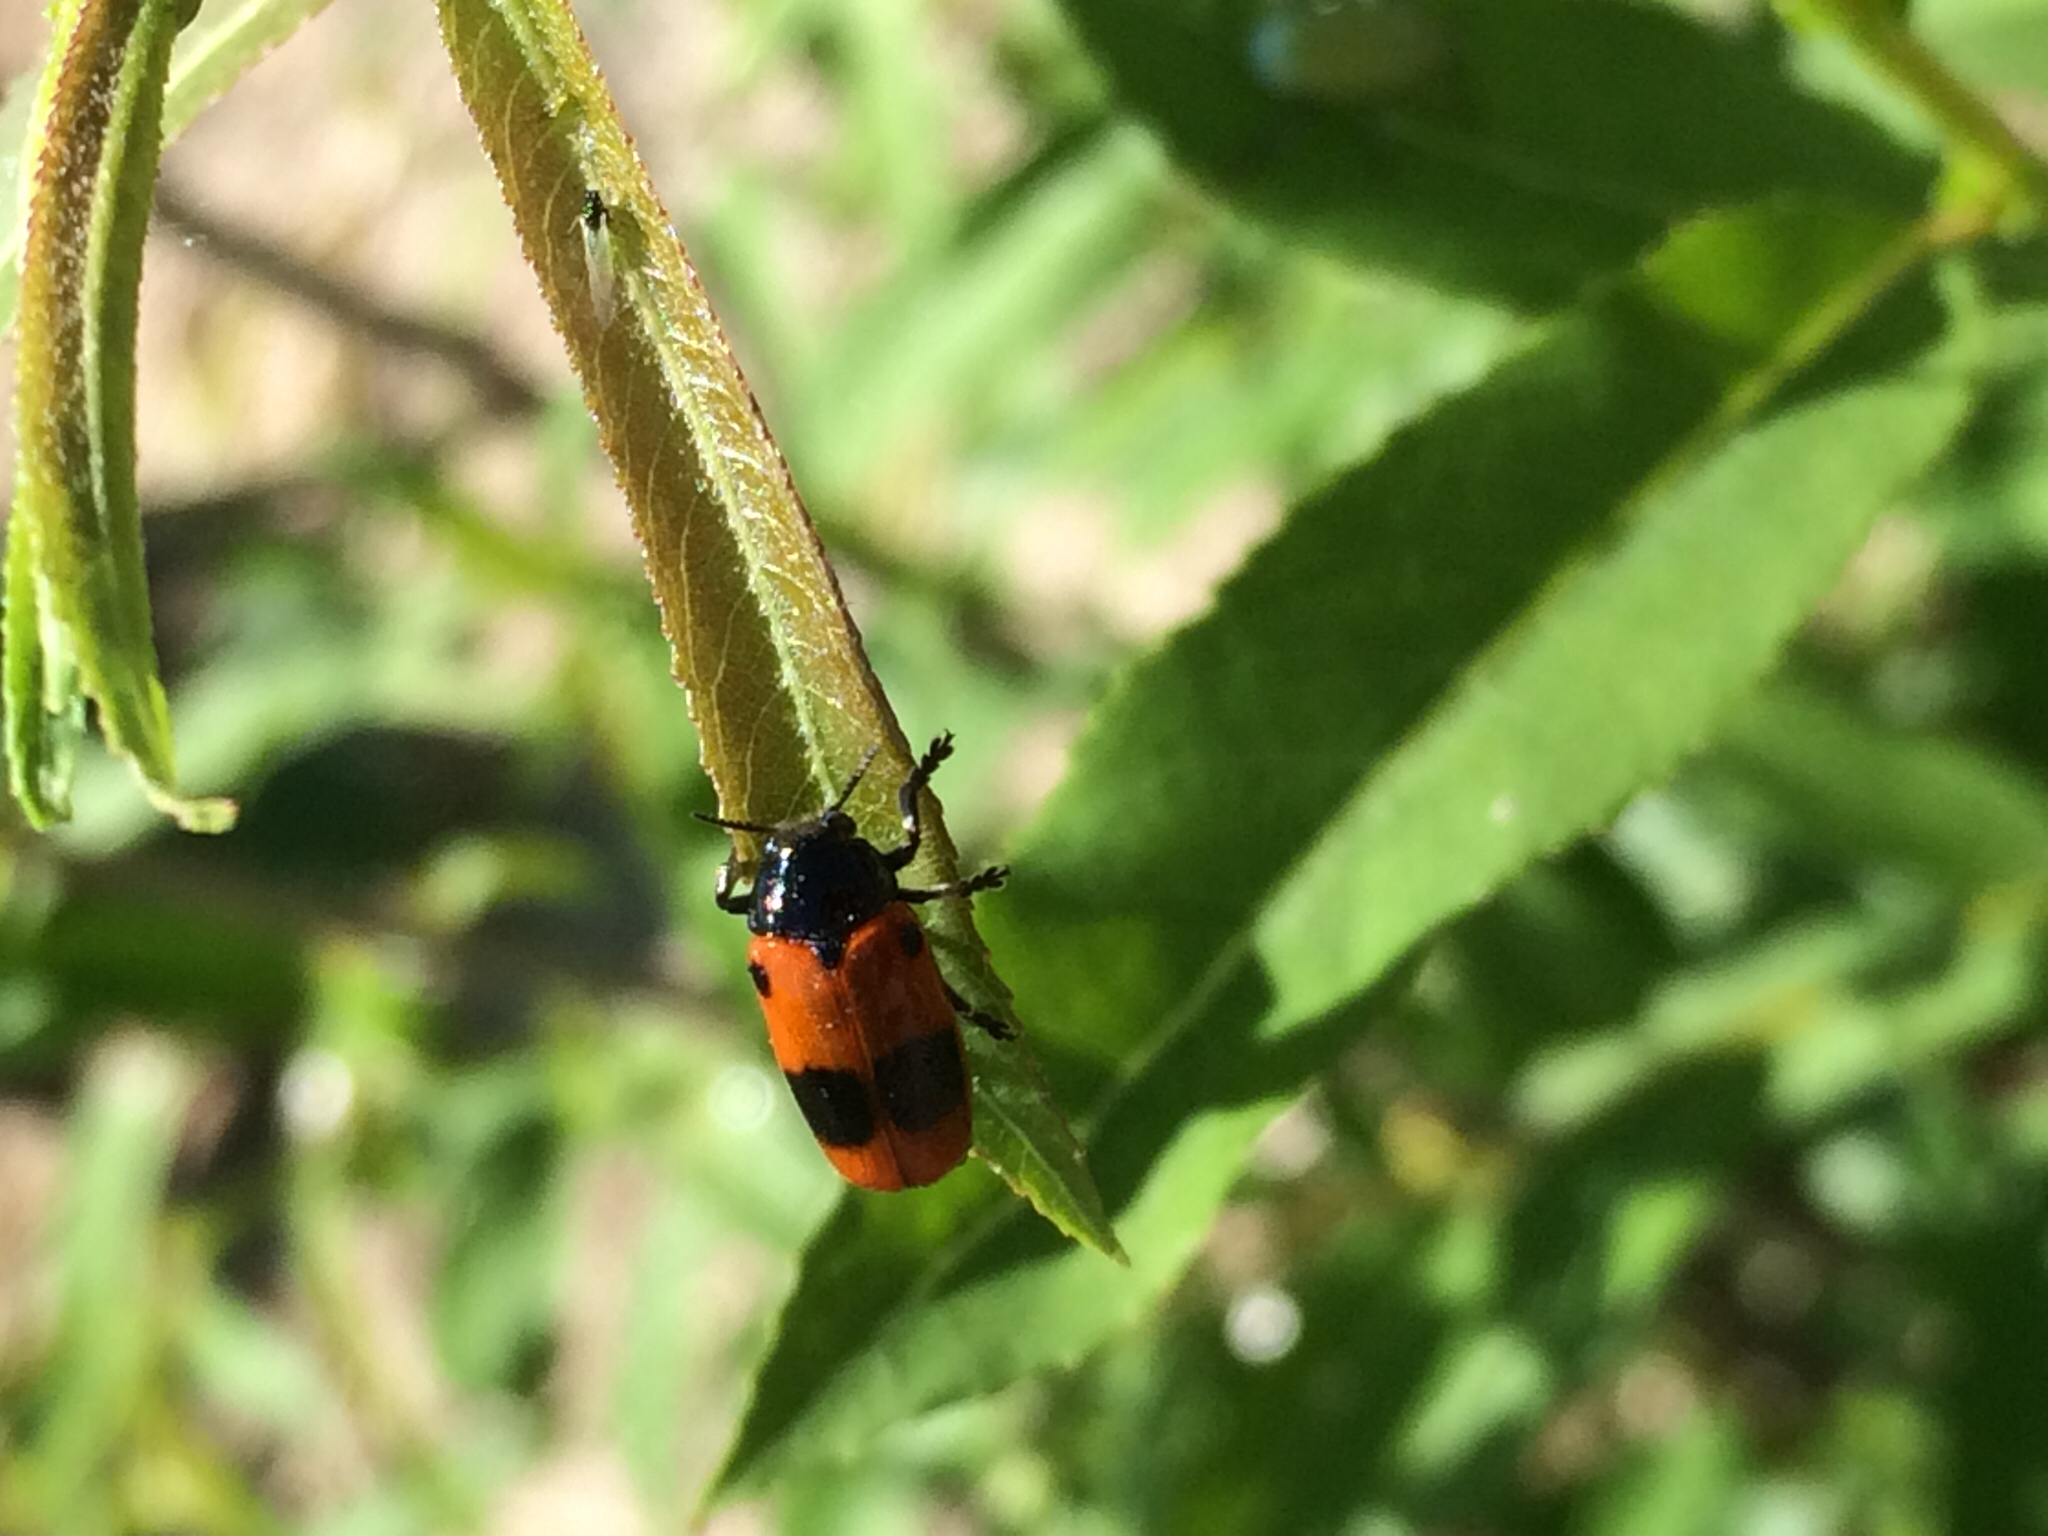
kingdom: Animalia
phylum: Arthropoda
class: Insecta
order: Coleoptera
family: Chrysomelidae
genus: Clytra
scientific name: Clytra laeviuscula
